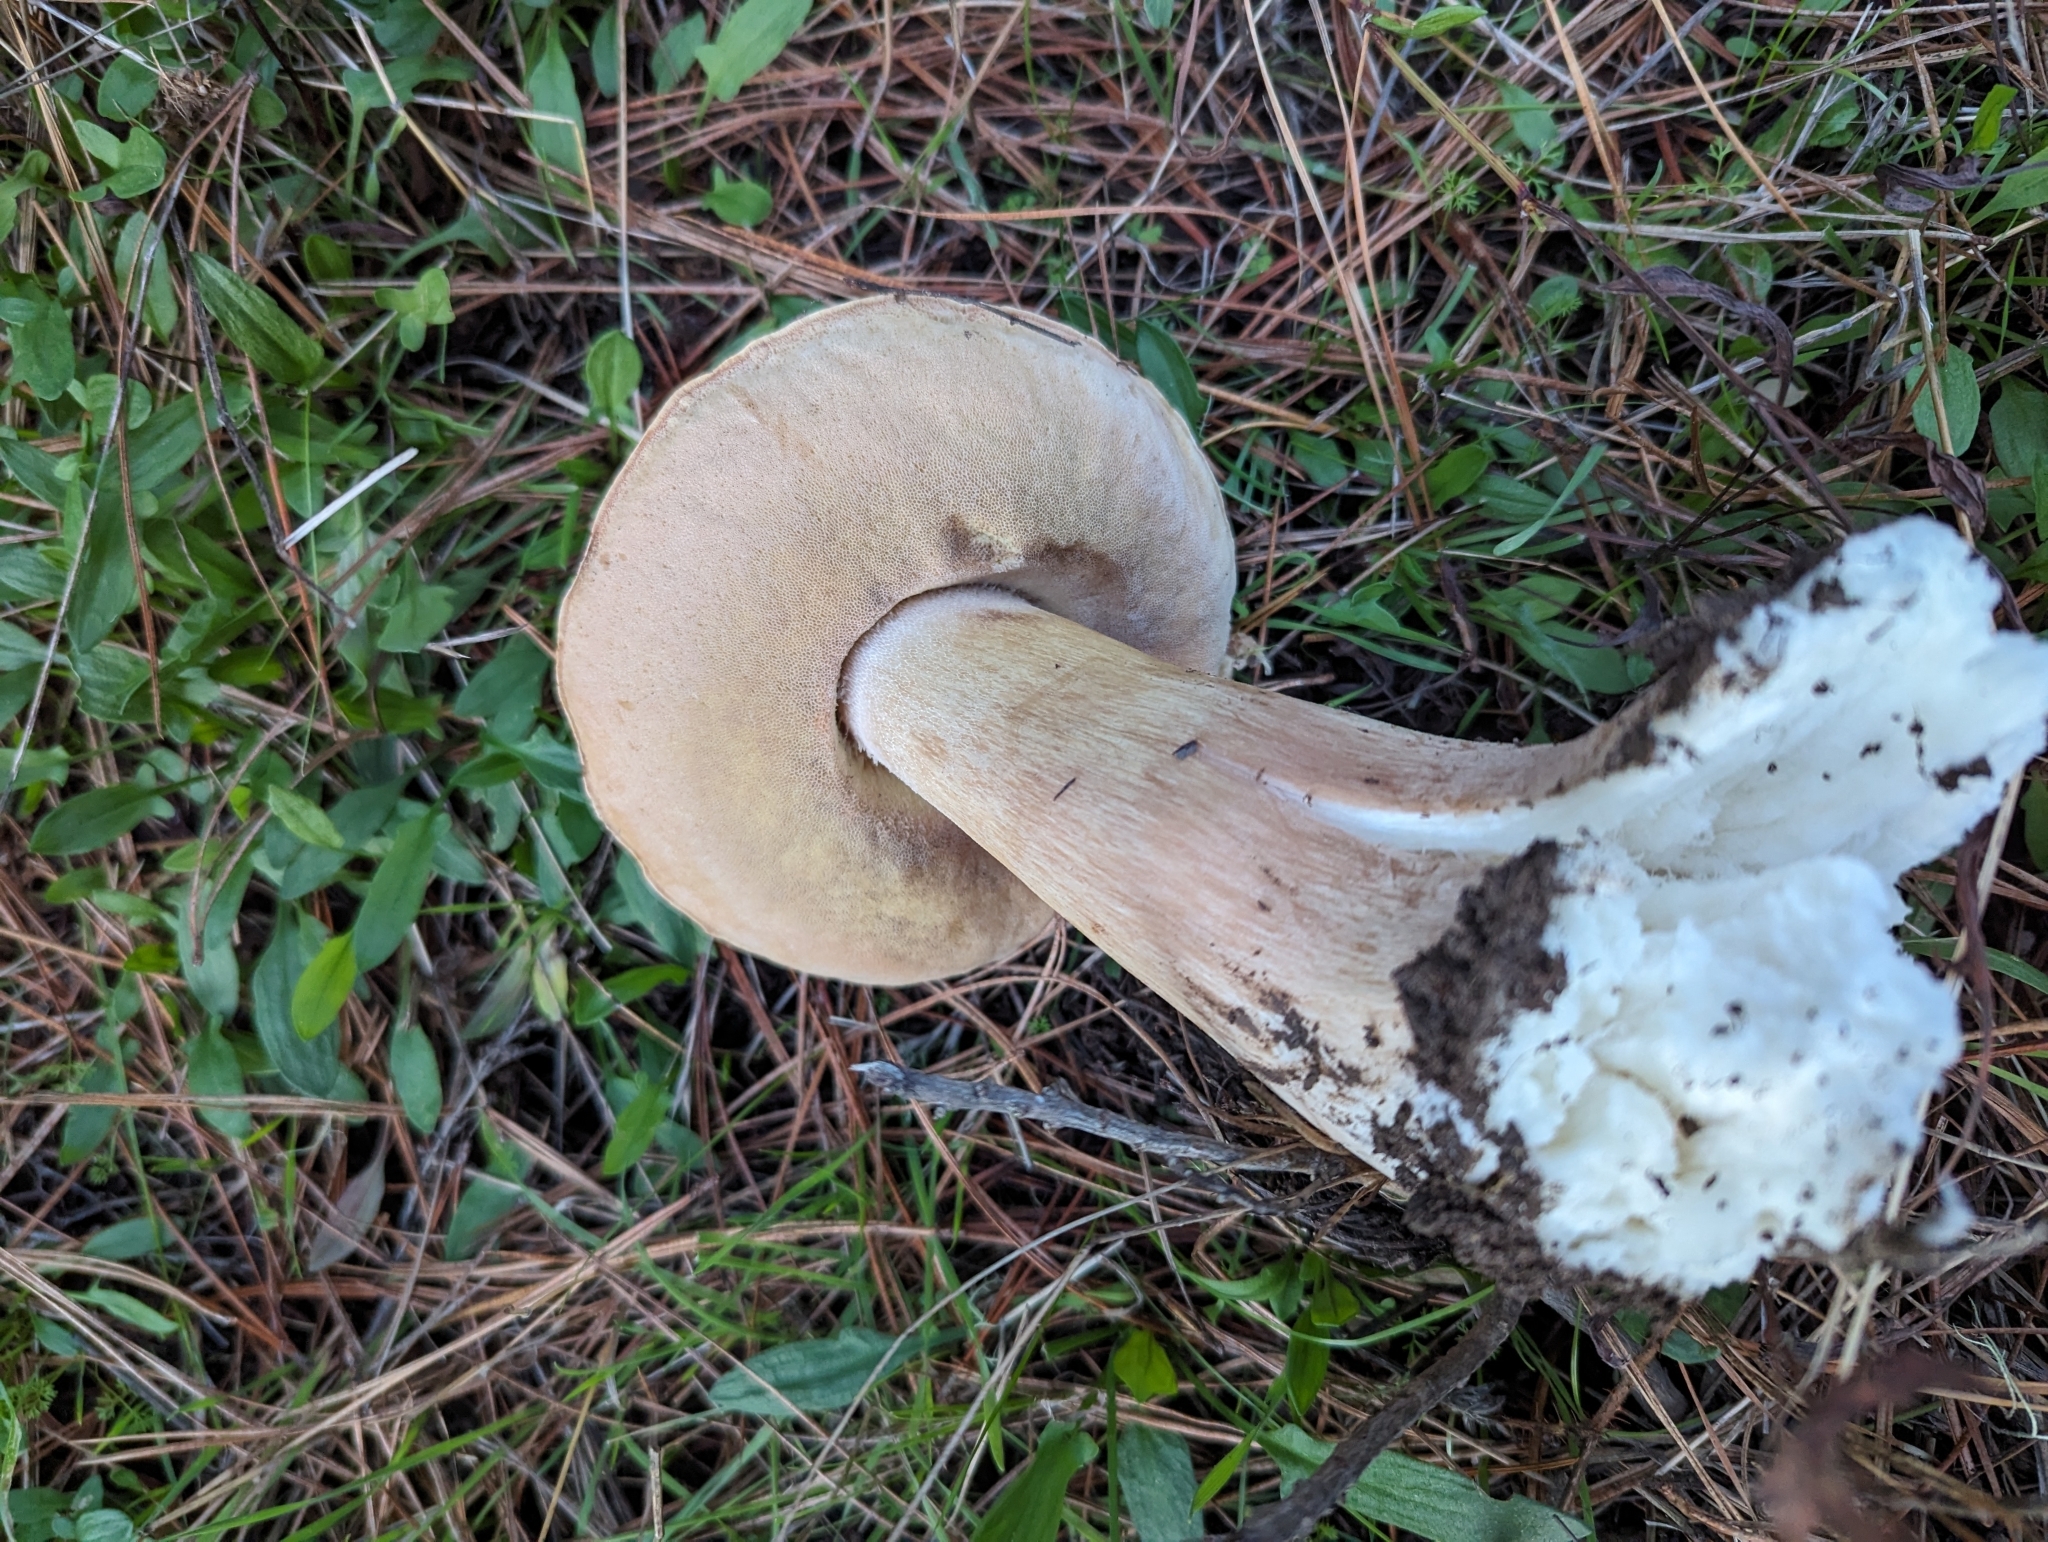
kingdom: Fungi
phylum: Basidiomycota
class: Agaricomycetes
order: Boletales
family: Boletaceae
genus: Boletus
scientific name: Boletus edulis
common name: Cep
